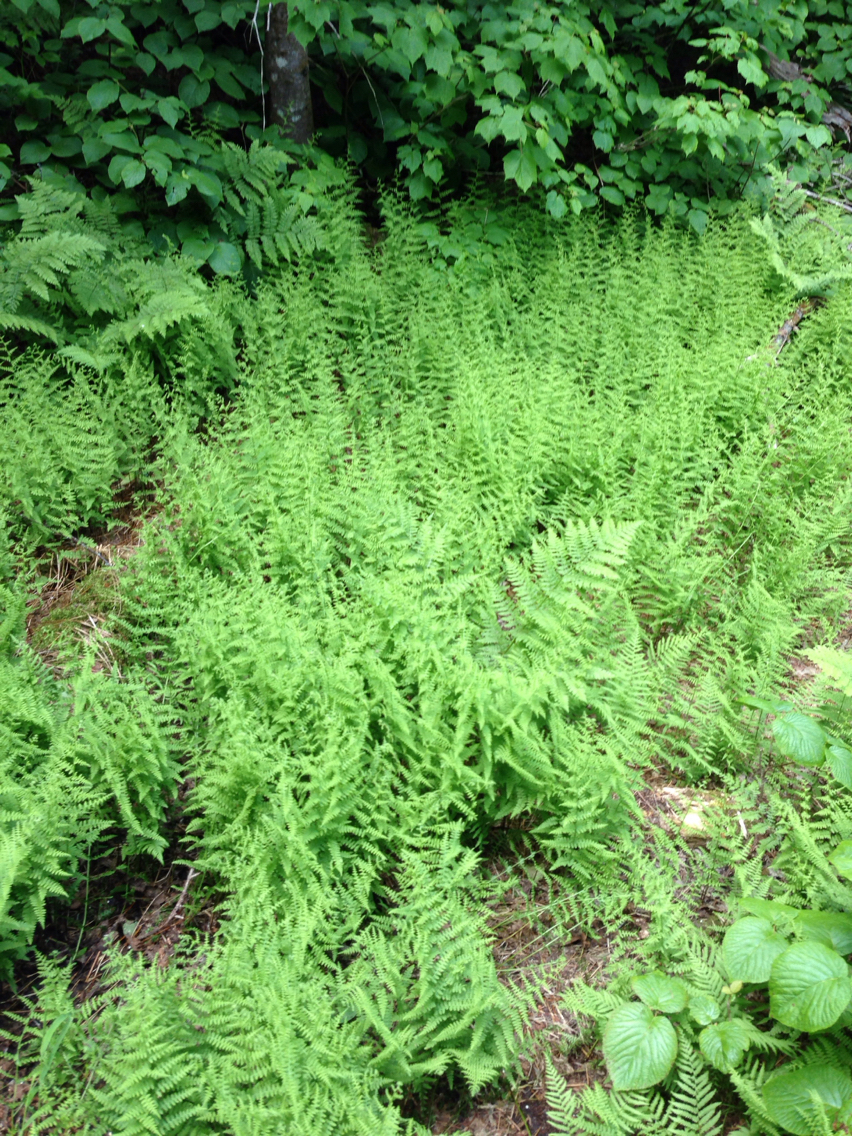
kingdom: Plantae
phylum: Tracheophyta
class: Polypodiopsida
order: Polypodiales
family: Dennstaedtiaceae
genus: Sitobolium
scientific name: Sitobolium punctilobum
